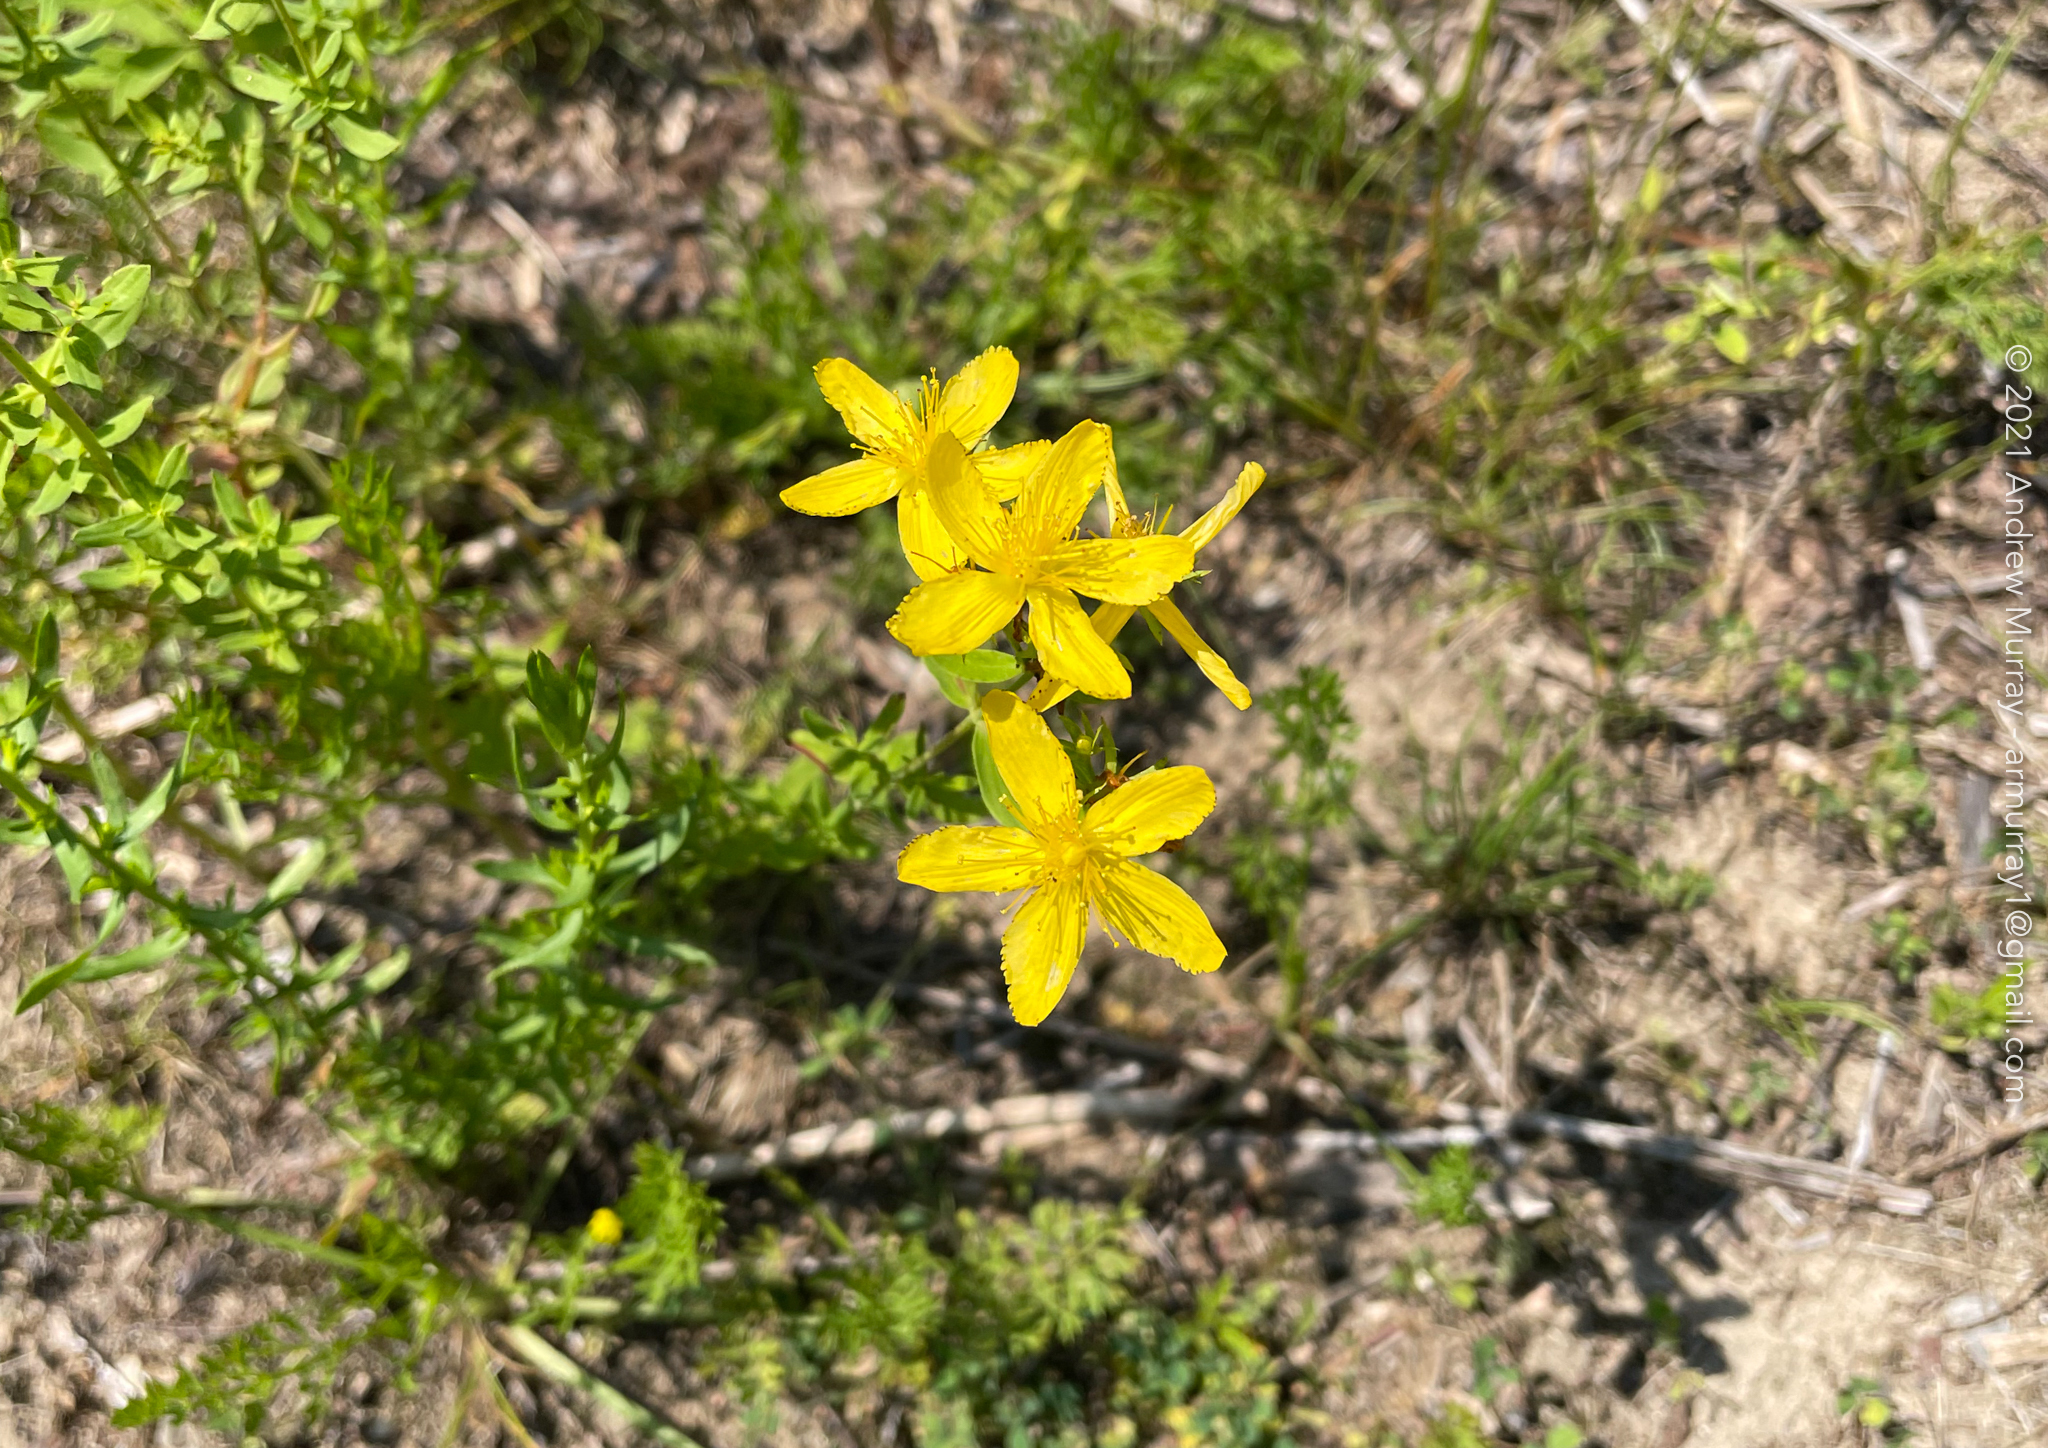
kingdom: Plantae
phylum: Tracheophyta
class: Magnoliopsida
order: Malpighiales
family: Hypericaceae
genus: Hypericum
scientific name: Hypericum perforatum
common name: Common st. johnswort
